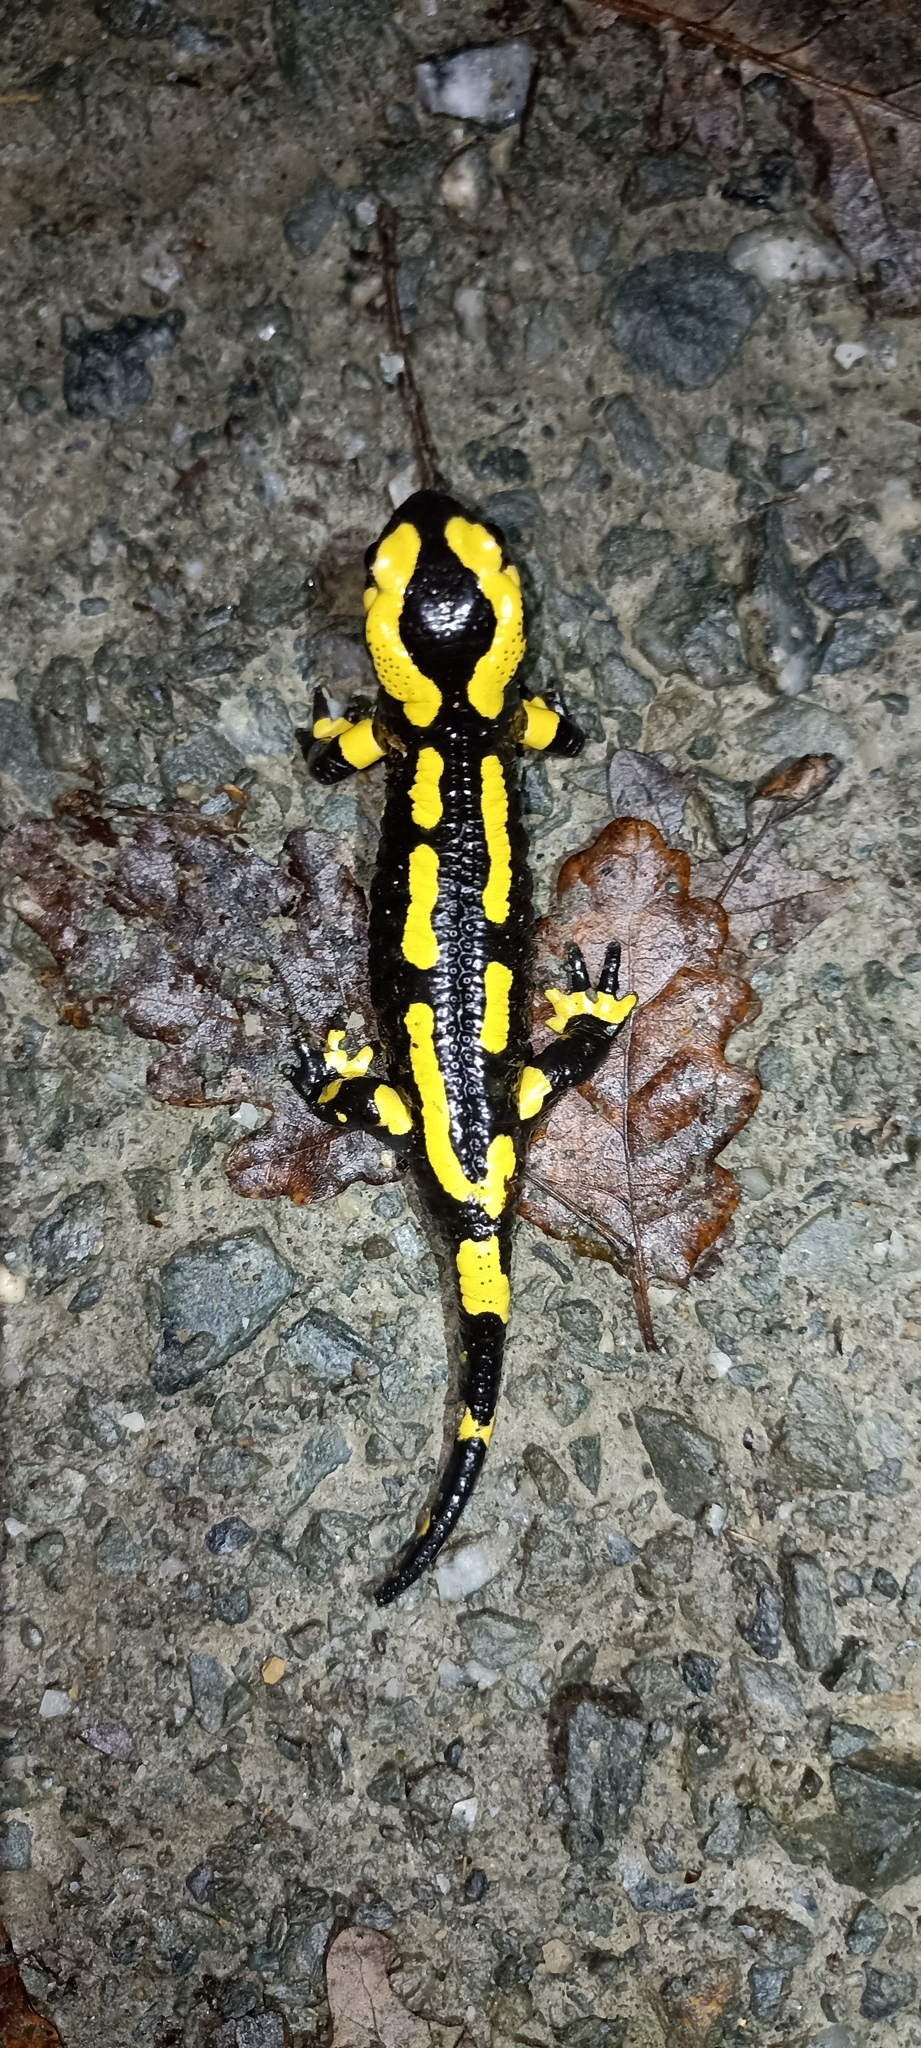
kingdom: Animalia
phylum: Chordata
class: Amphibia
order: Caudata
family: Salamandridae
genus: Salamandra
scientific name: Salamandra salamandra
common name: Fire salamander
